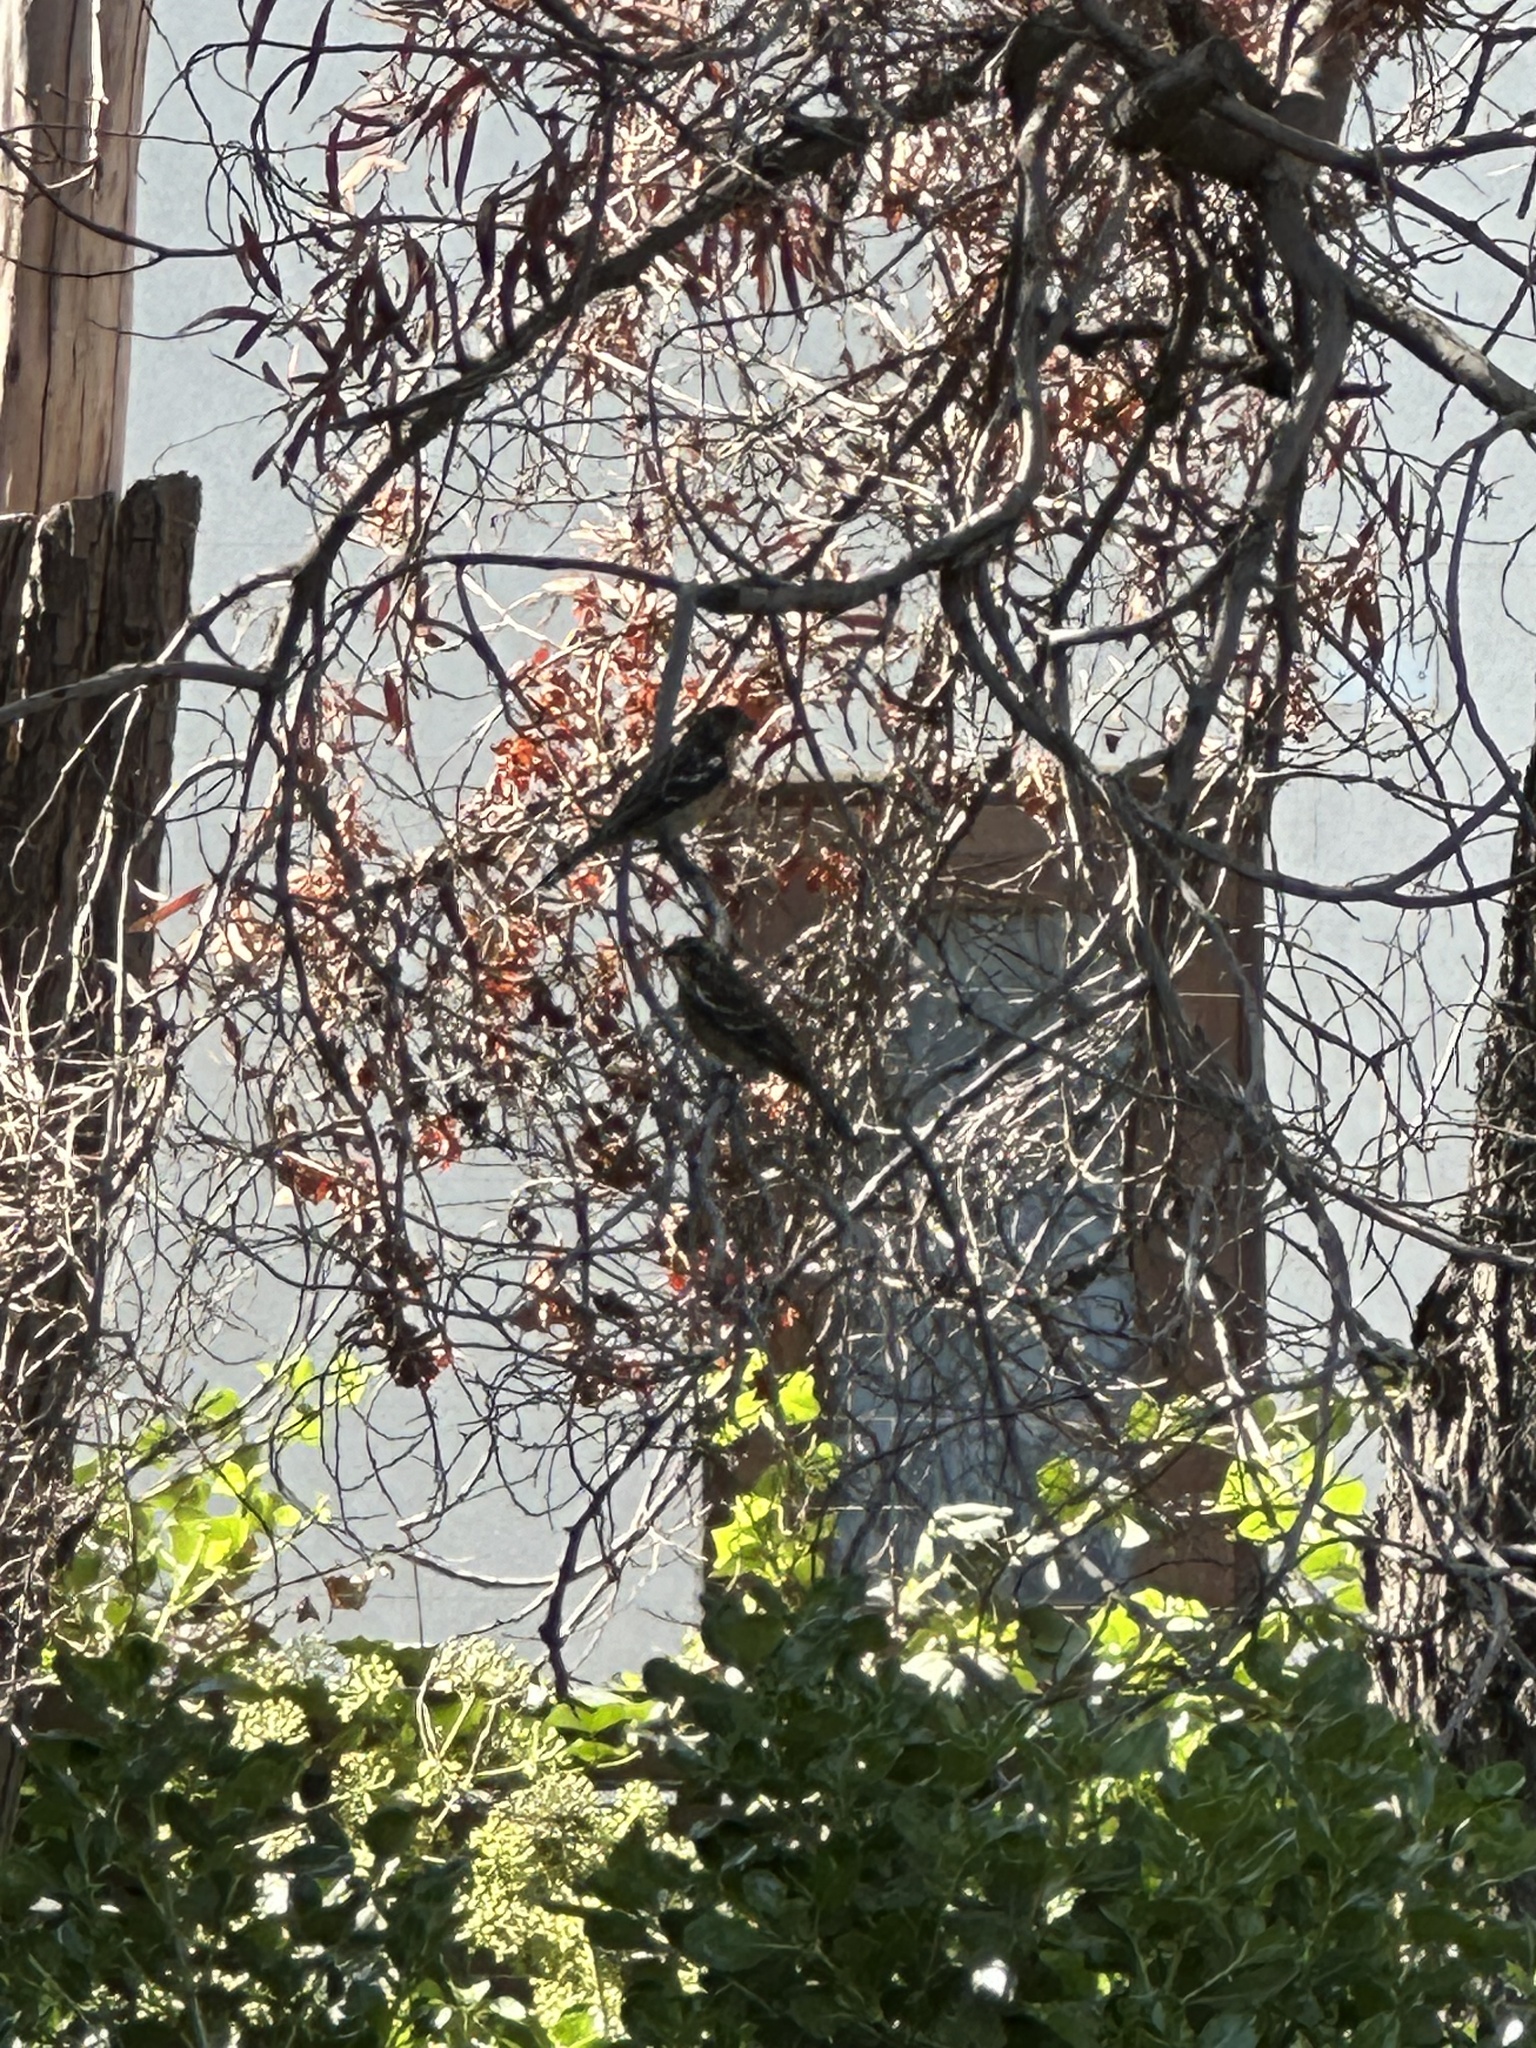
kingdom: Animalia
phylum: Chordata
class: Aves
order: Passeriformes
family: Cotingidae
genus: Phytotoma
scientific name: Phytotoma rara
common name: Rufous-tailed plantcutter
